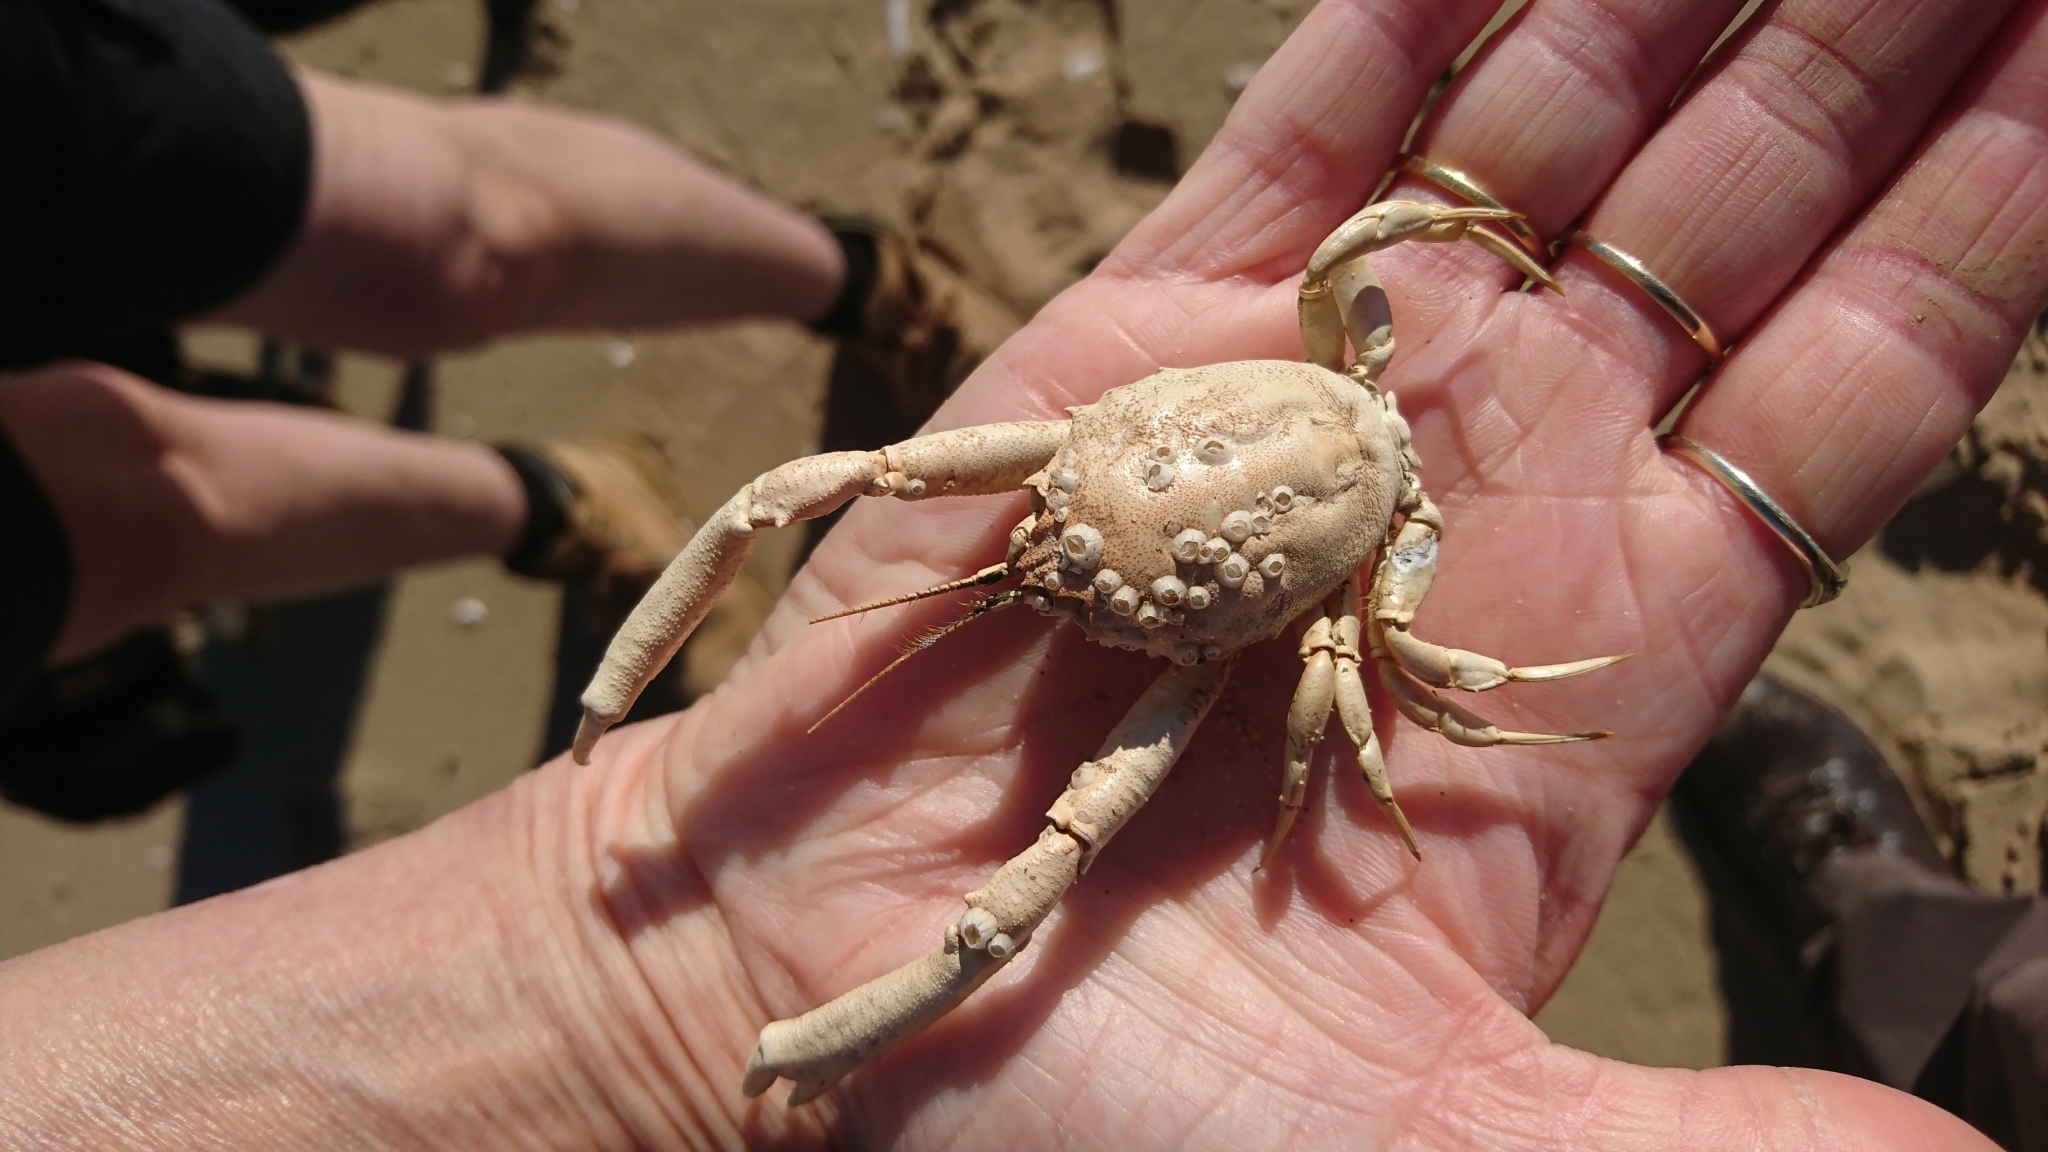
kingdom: Animalia
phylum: Arthropoda
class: Malacostraca
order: Decapoda
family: Corystidae
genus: Corystes
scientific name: Corystes cassivelaunus
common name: Masked crab
